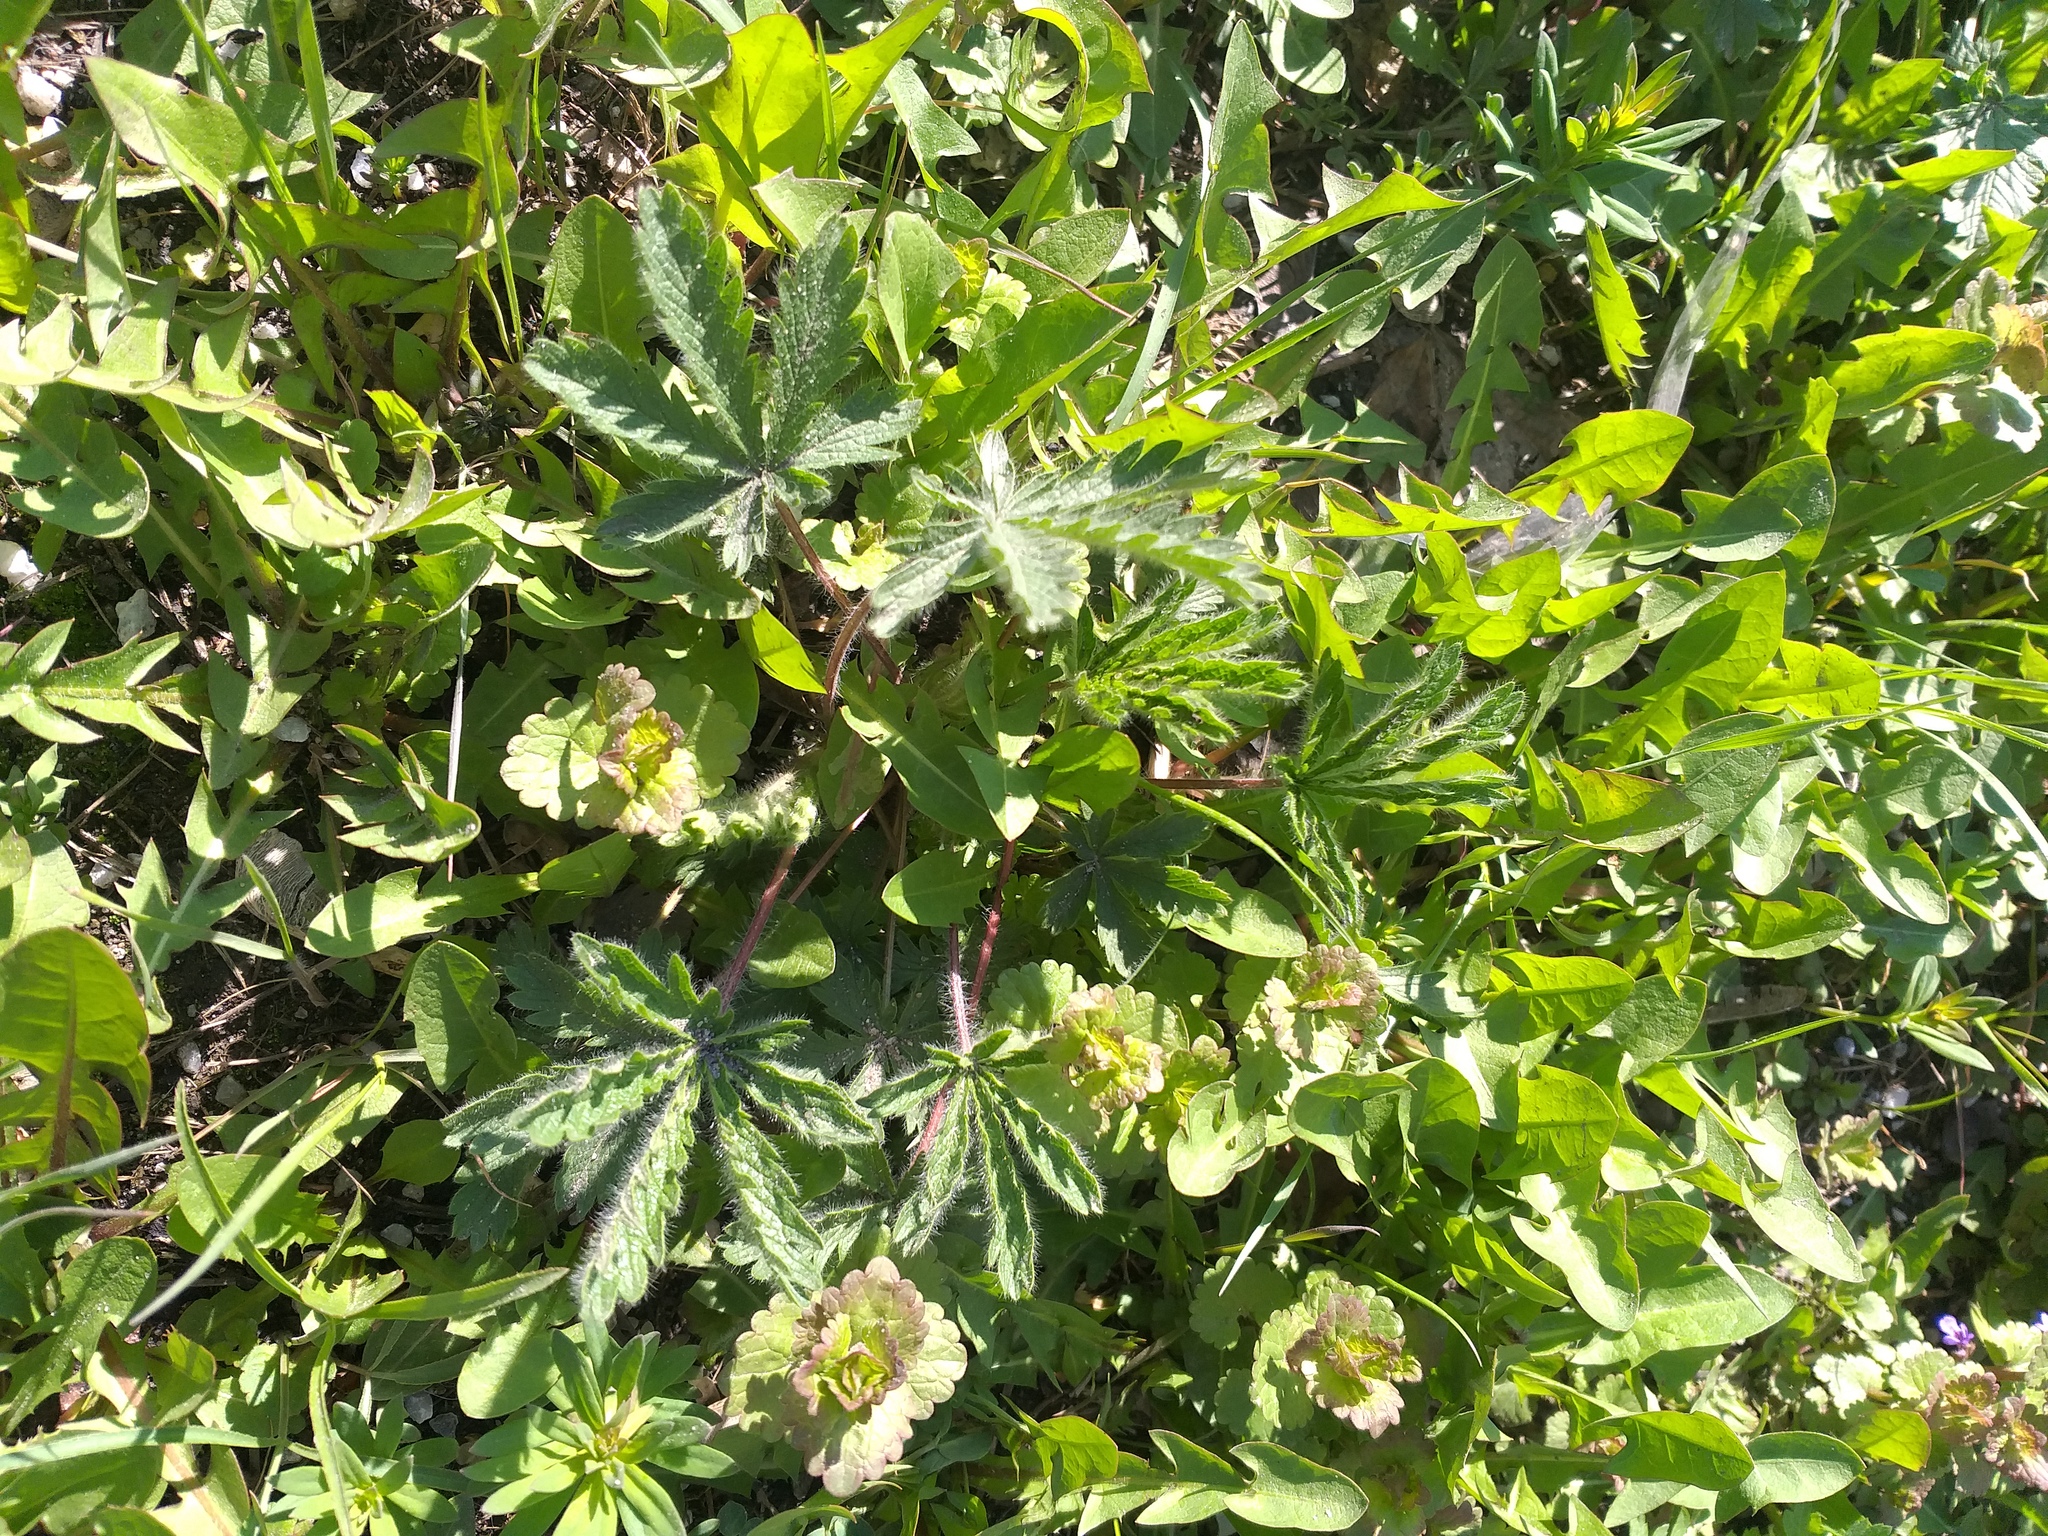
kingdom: Plantae
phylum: Tracheophyta
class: Magnoliopsida
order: Rosales
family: Rosaceae
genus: Potentilla
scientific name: Potentilla recta
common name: Sulphur cinquefoil
